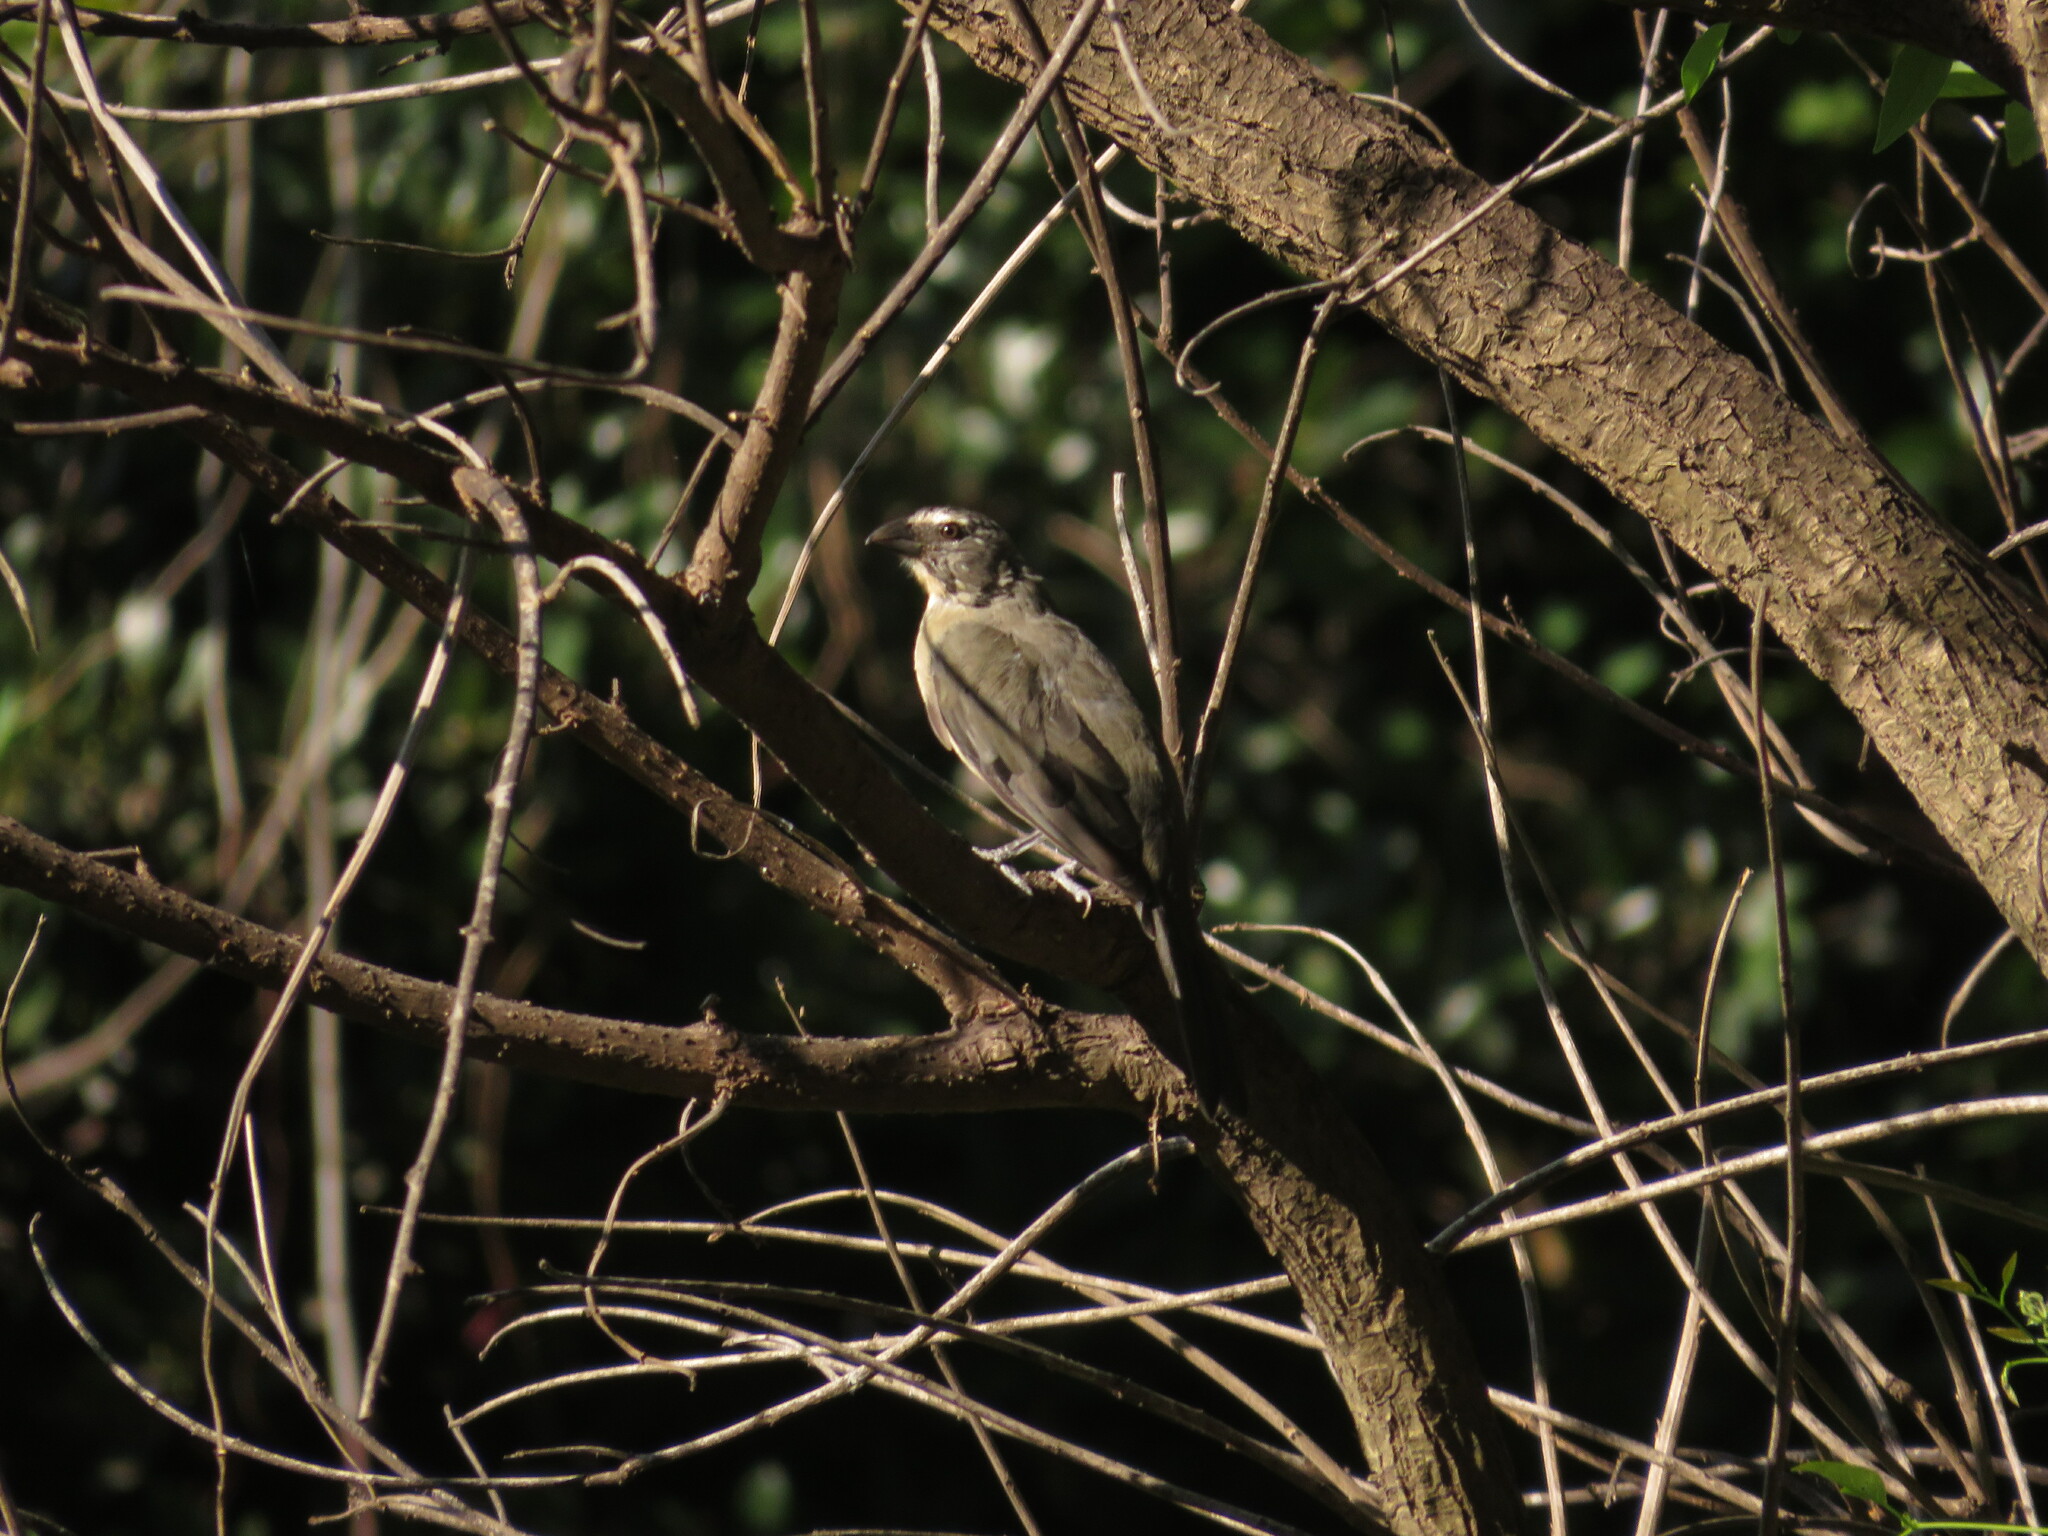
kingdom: Animalia
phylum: Chordata
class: Aves
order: Passeriformes
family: Thraupidae
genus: Saltator
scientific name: Saltator coerulescens
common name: Grayish saltator
